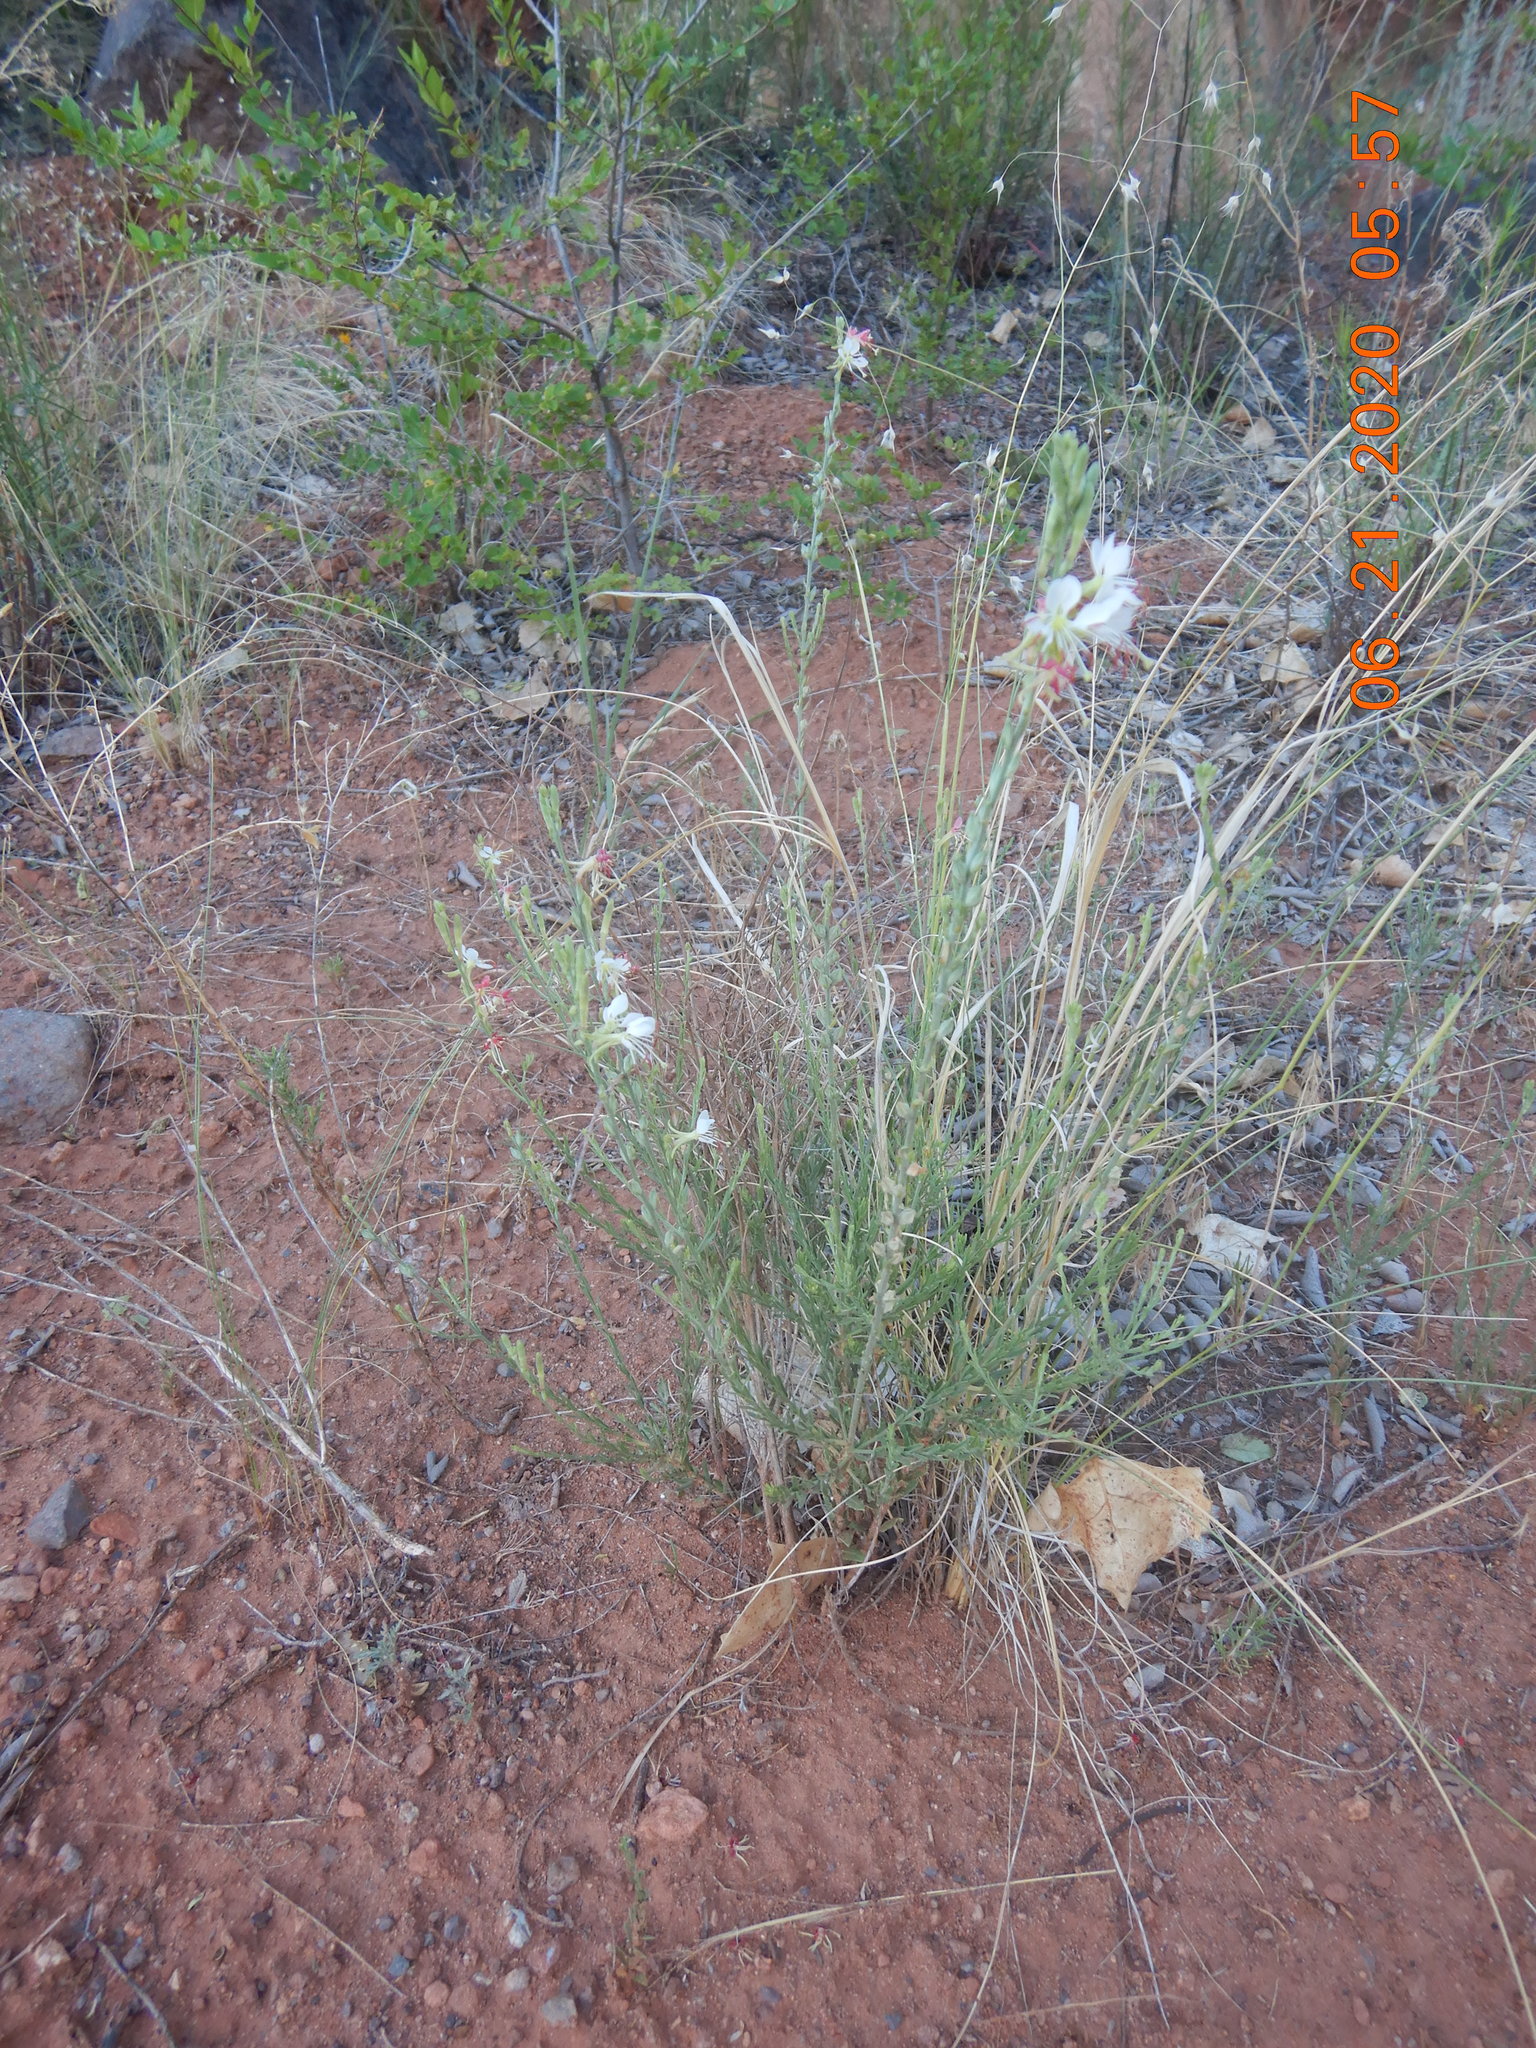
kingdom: Plantae
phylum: Tracheophyta
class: Magnoliopsida
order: Myrtales
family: Onagraceae
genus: Oenothera
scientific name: Oenothera suffrutescens
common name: Scarlet beeblossom
